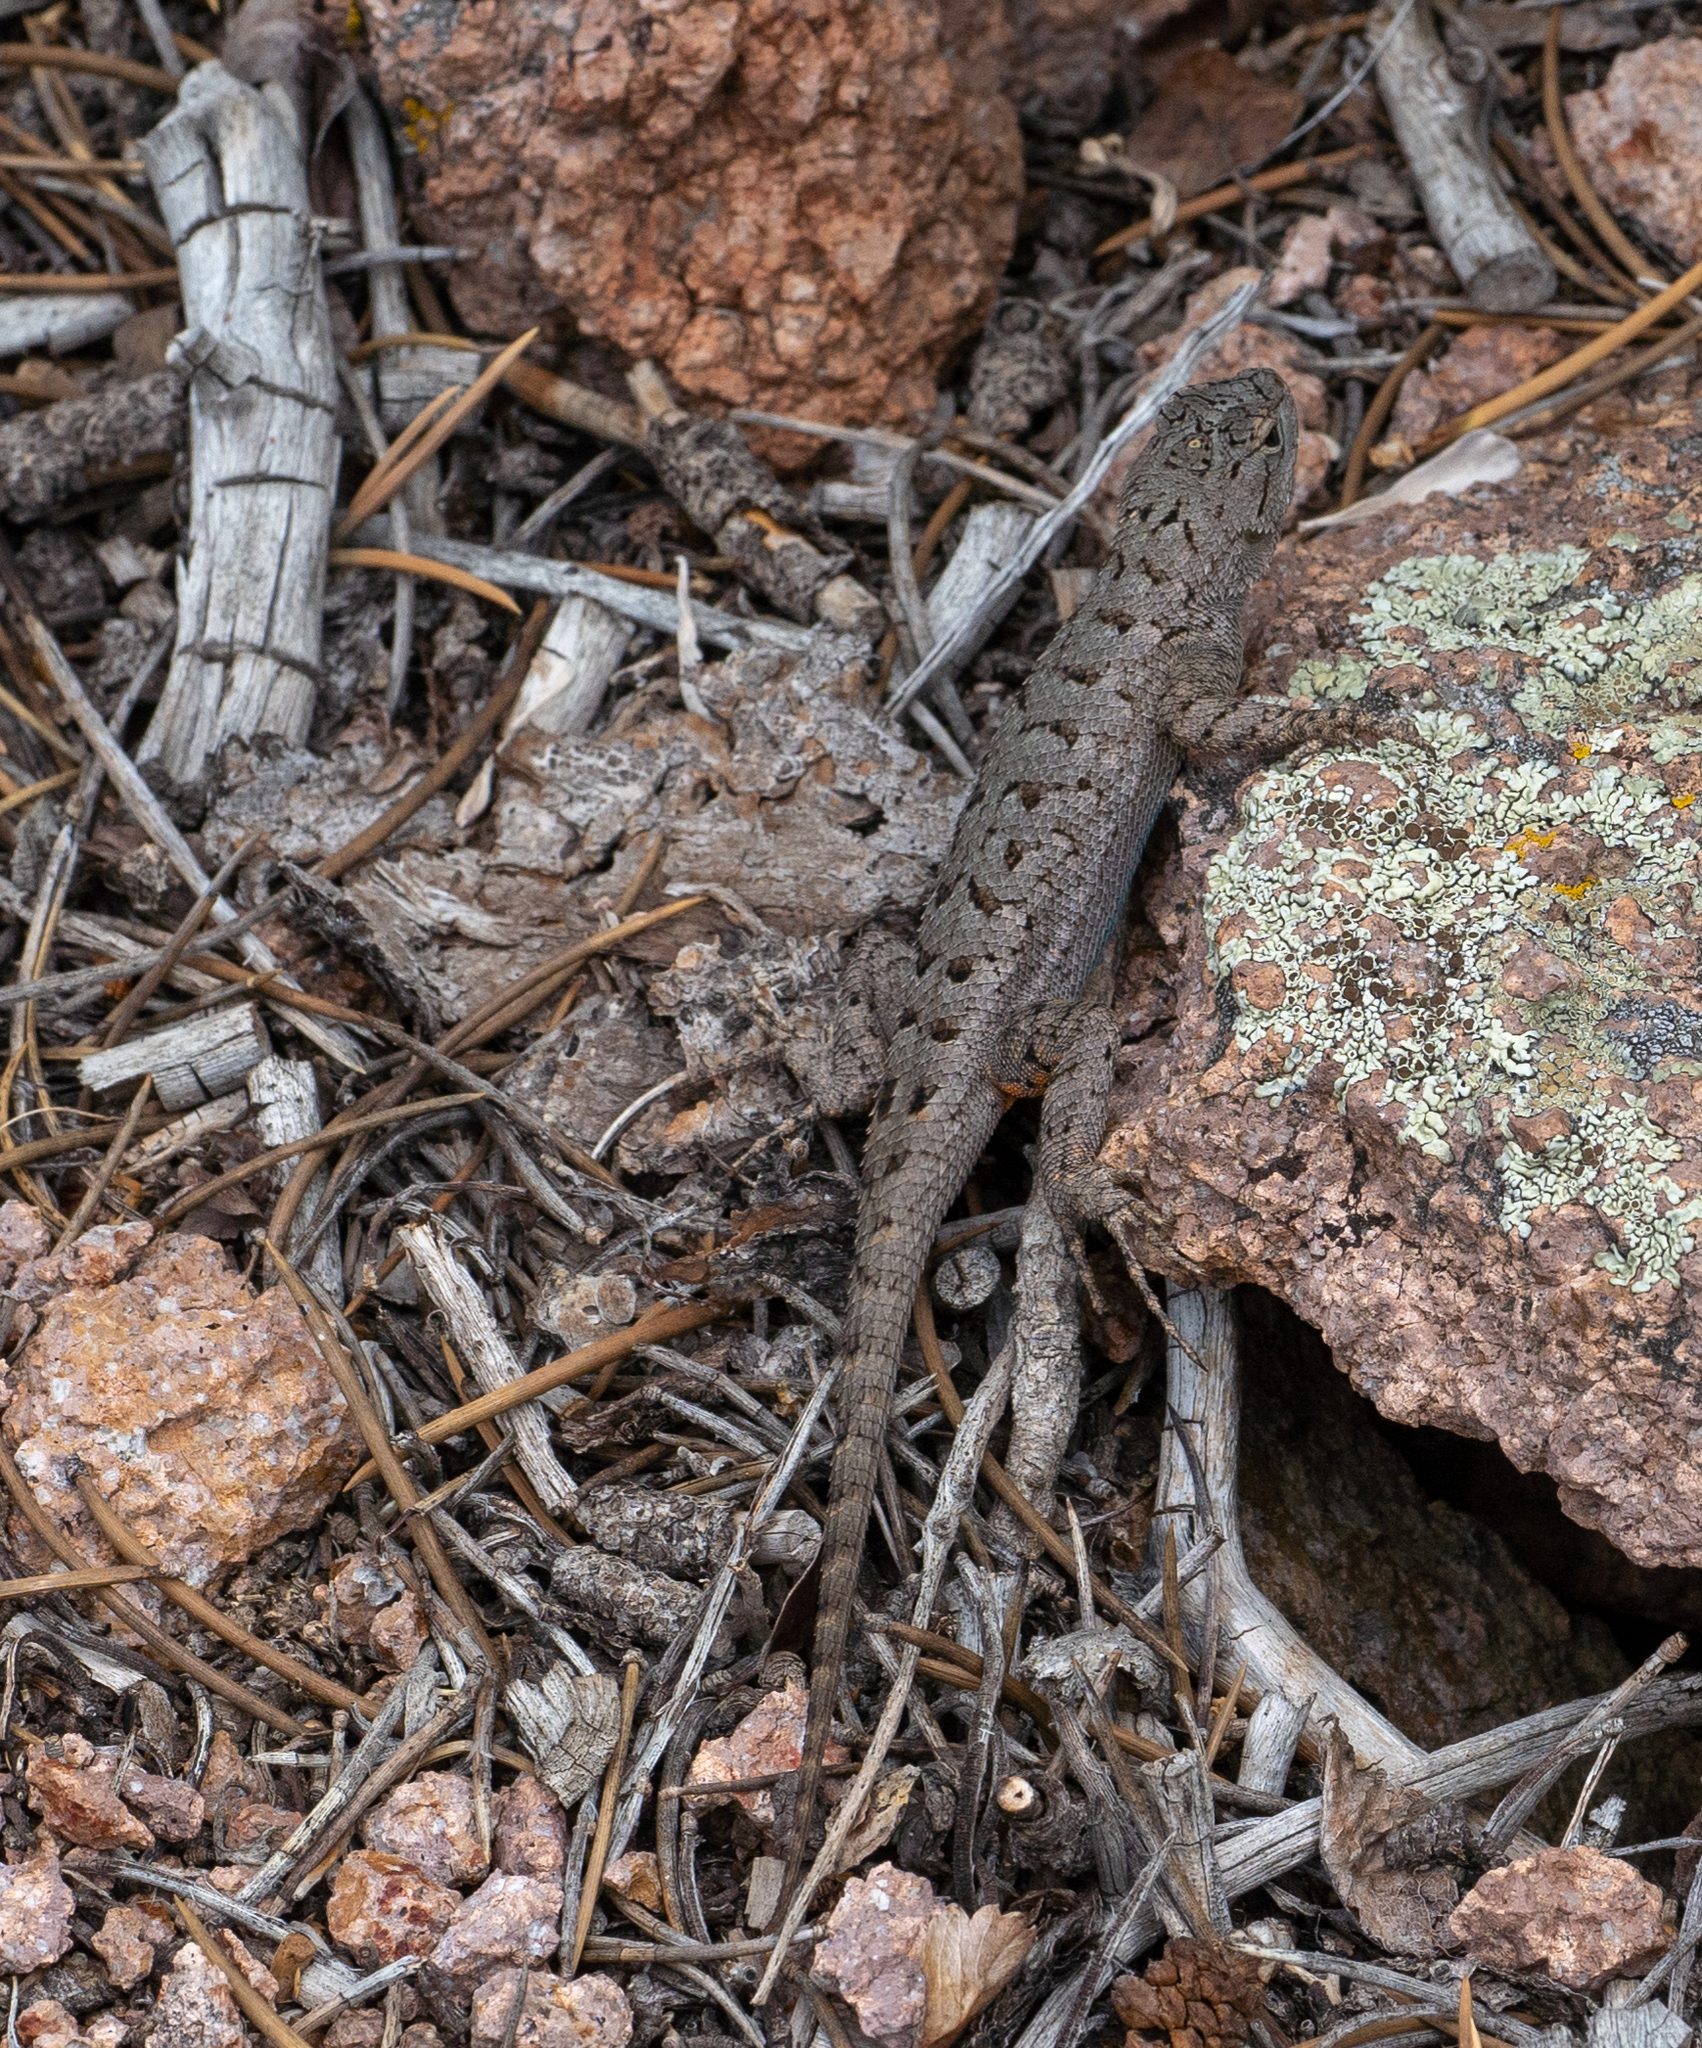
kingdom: Animalia
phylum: Chordata
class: Squamata
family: Phrynosomatidae
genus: Sceloporus
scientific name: Sceloporus occidentalis
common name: Western fence lizard
